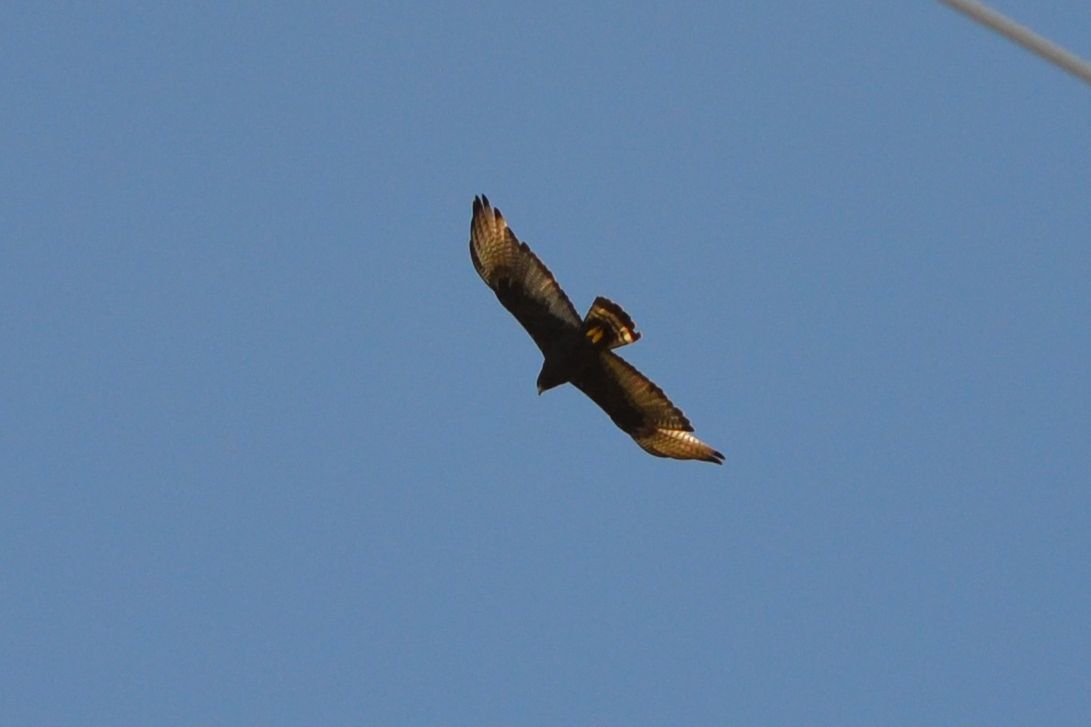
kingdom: Animalia
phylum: Chordata
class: Aves
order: Accipitriformes
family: Accipitridae
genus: Buteo
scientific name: Buteo albonotatus
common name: Zone-tailed hawk
